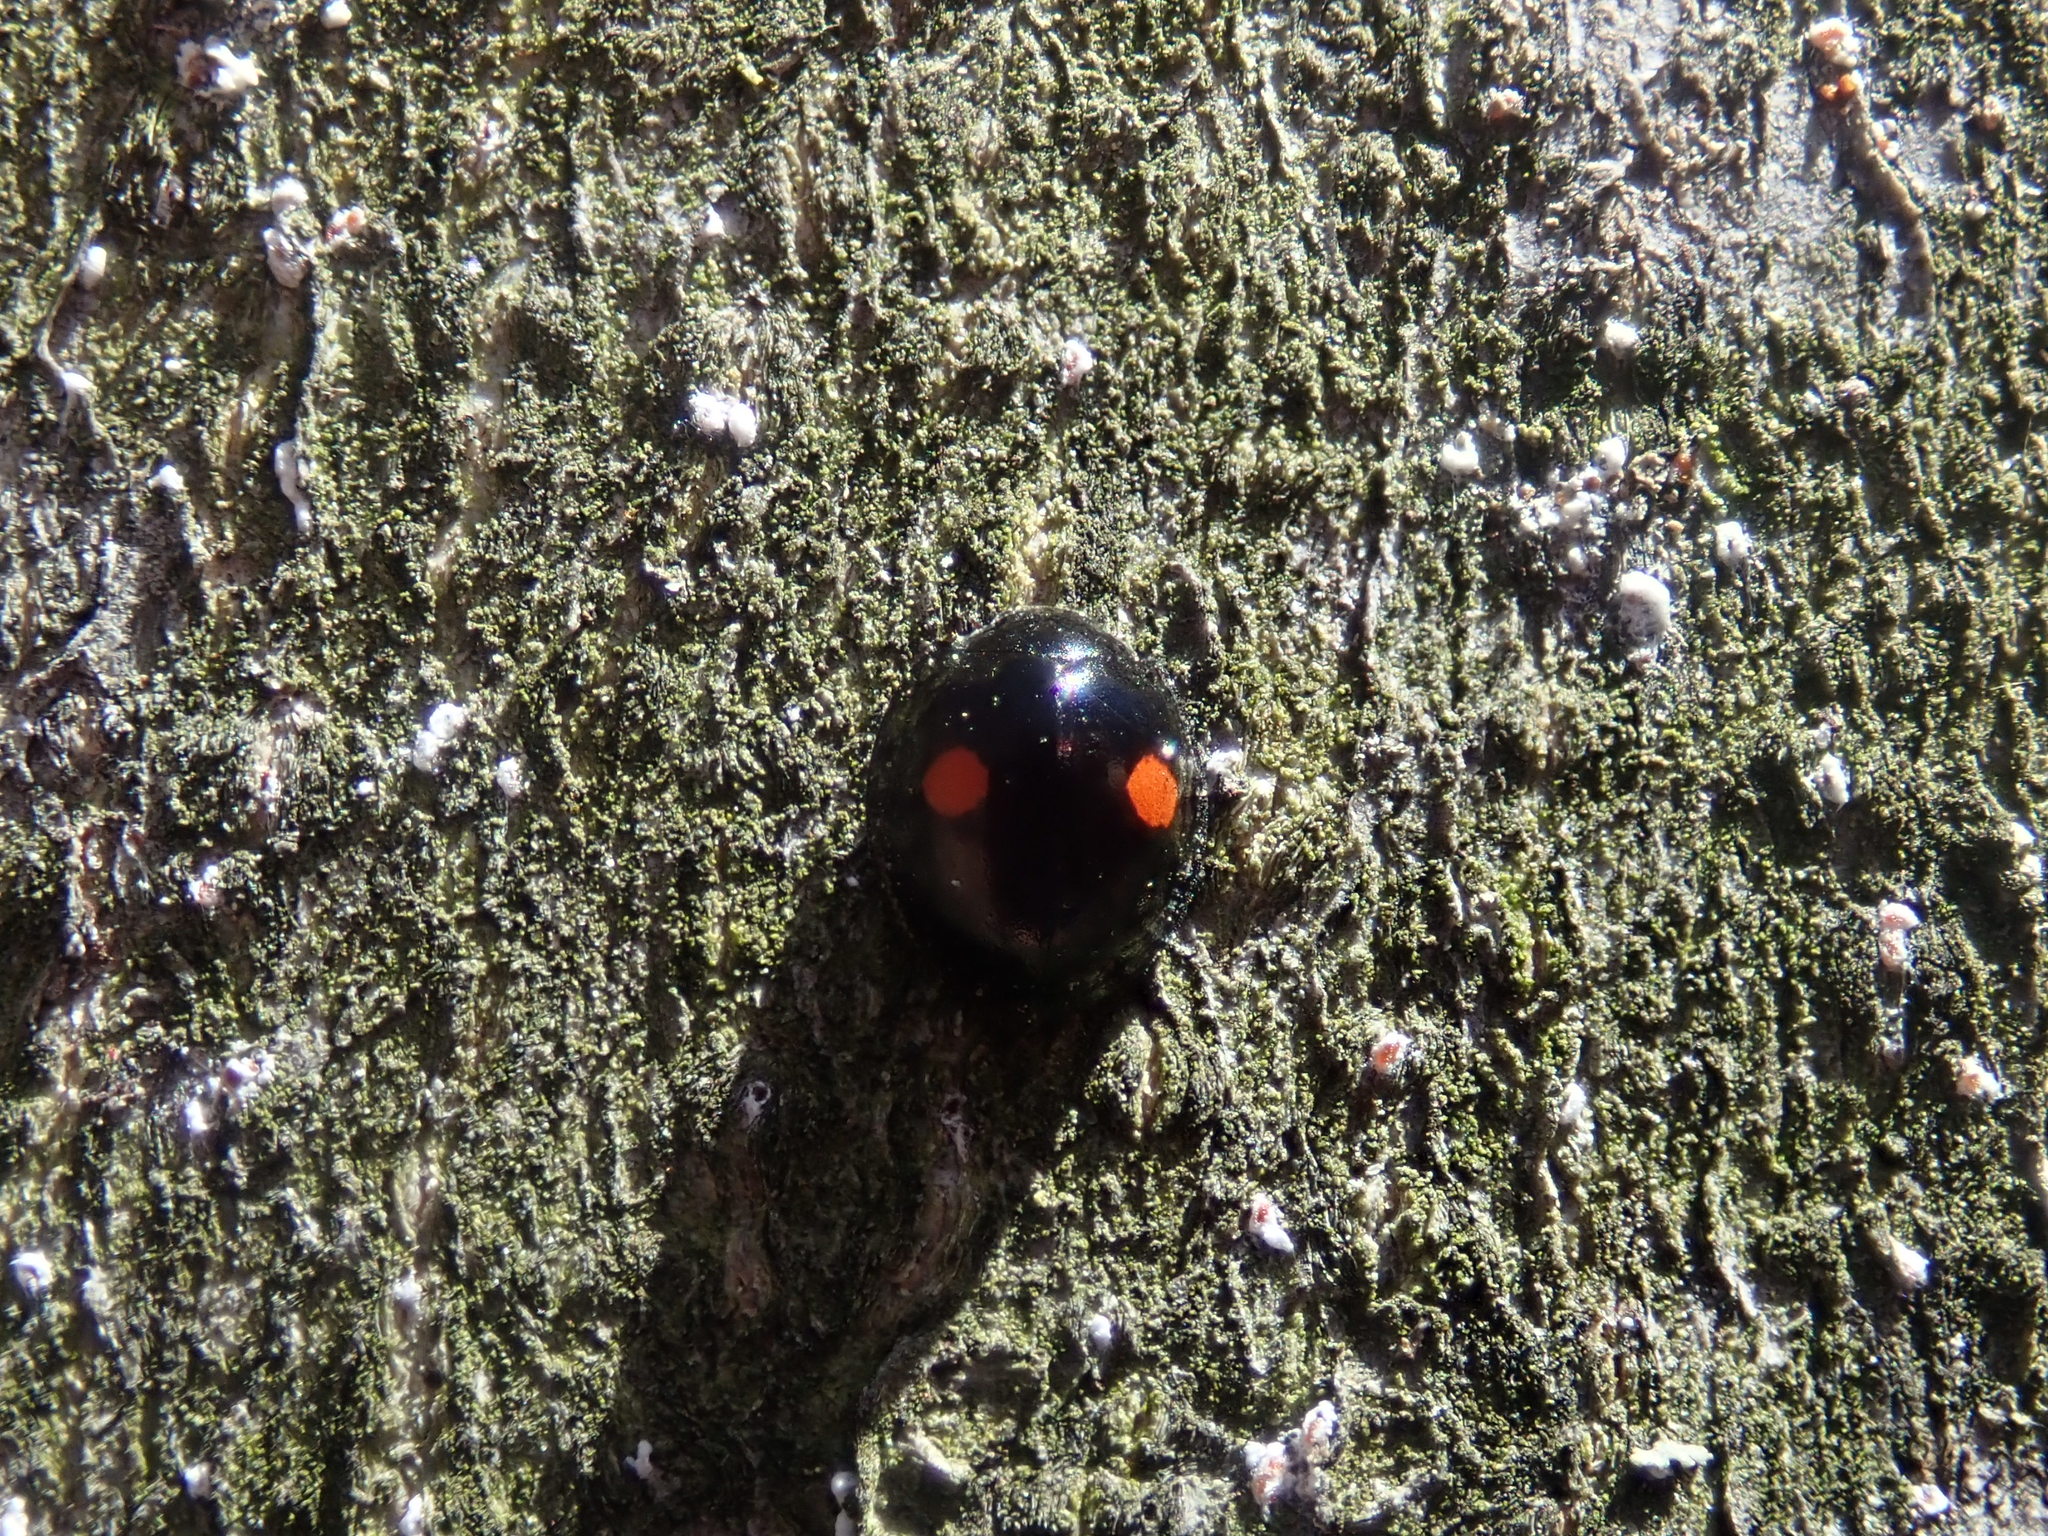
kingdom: Animalia
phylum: Arthropoda
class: Insecta
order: Coleoptera
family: Coccinellidae
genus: Chilocorus
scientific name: Chilocorus stigma
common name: Twicestabbed lady beetle
